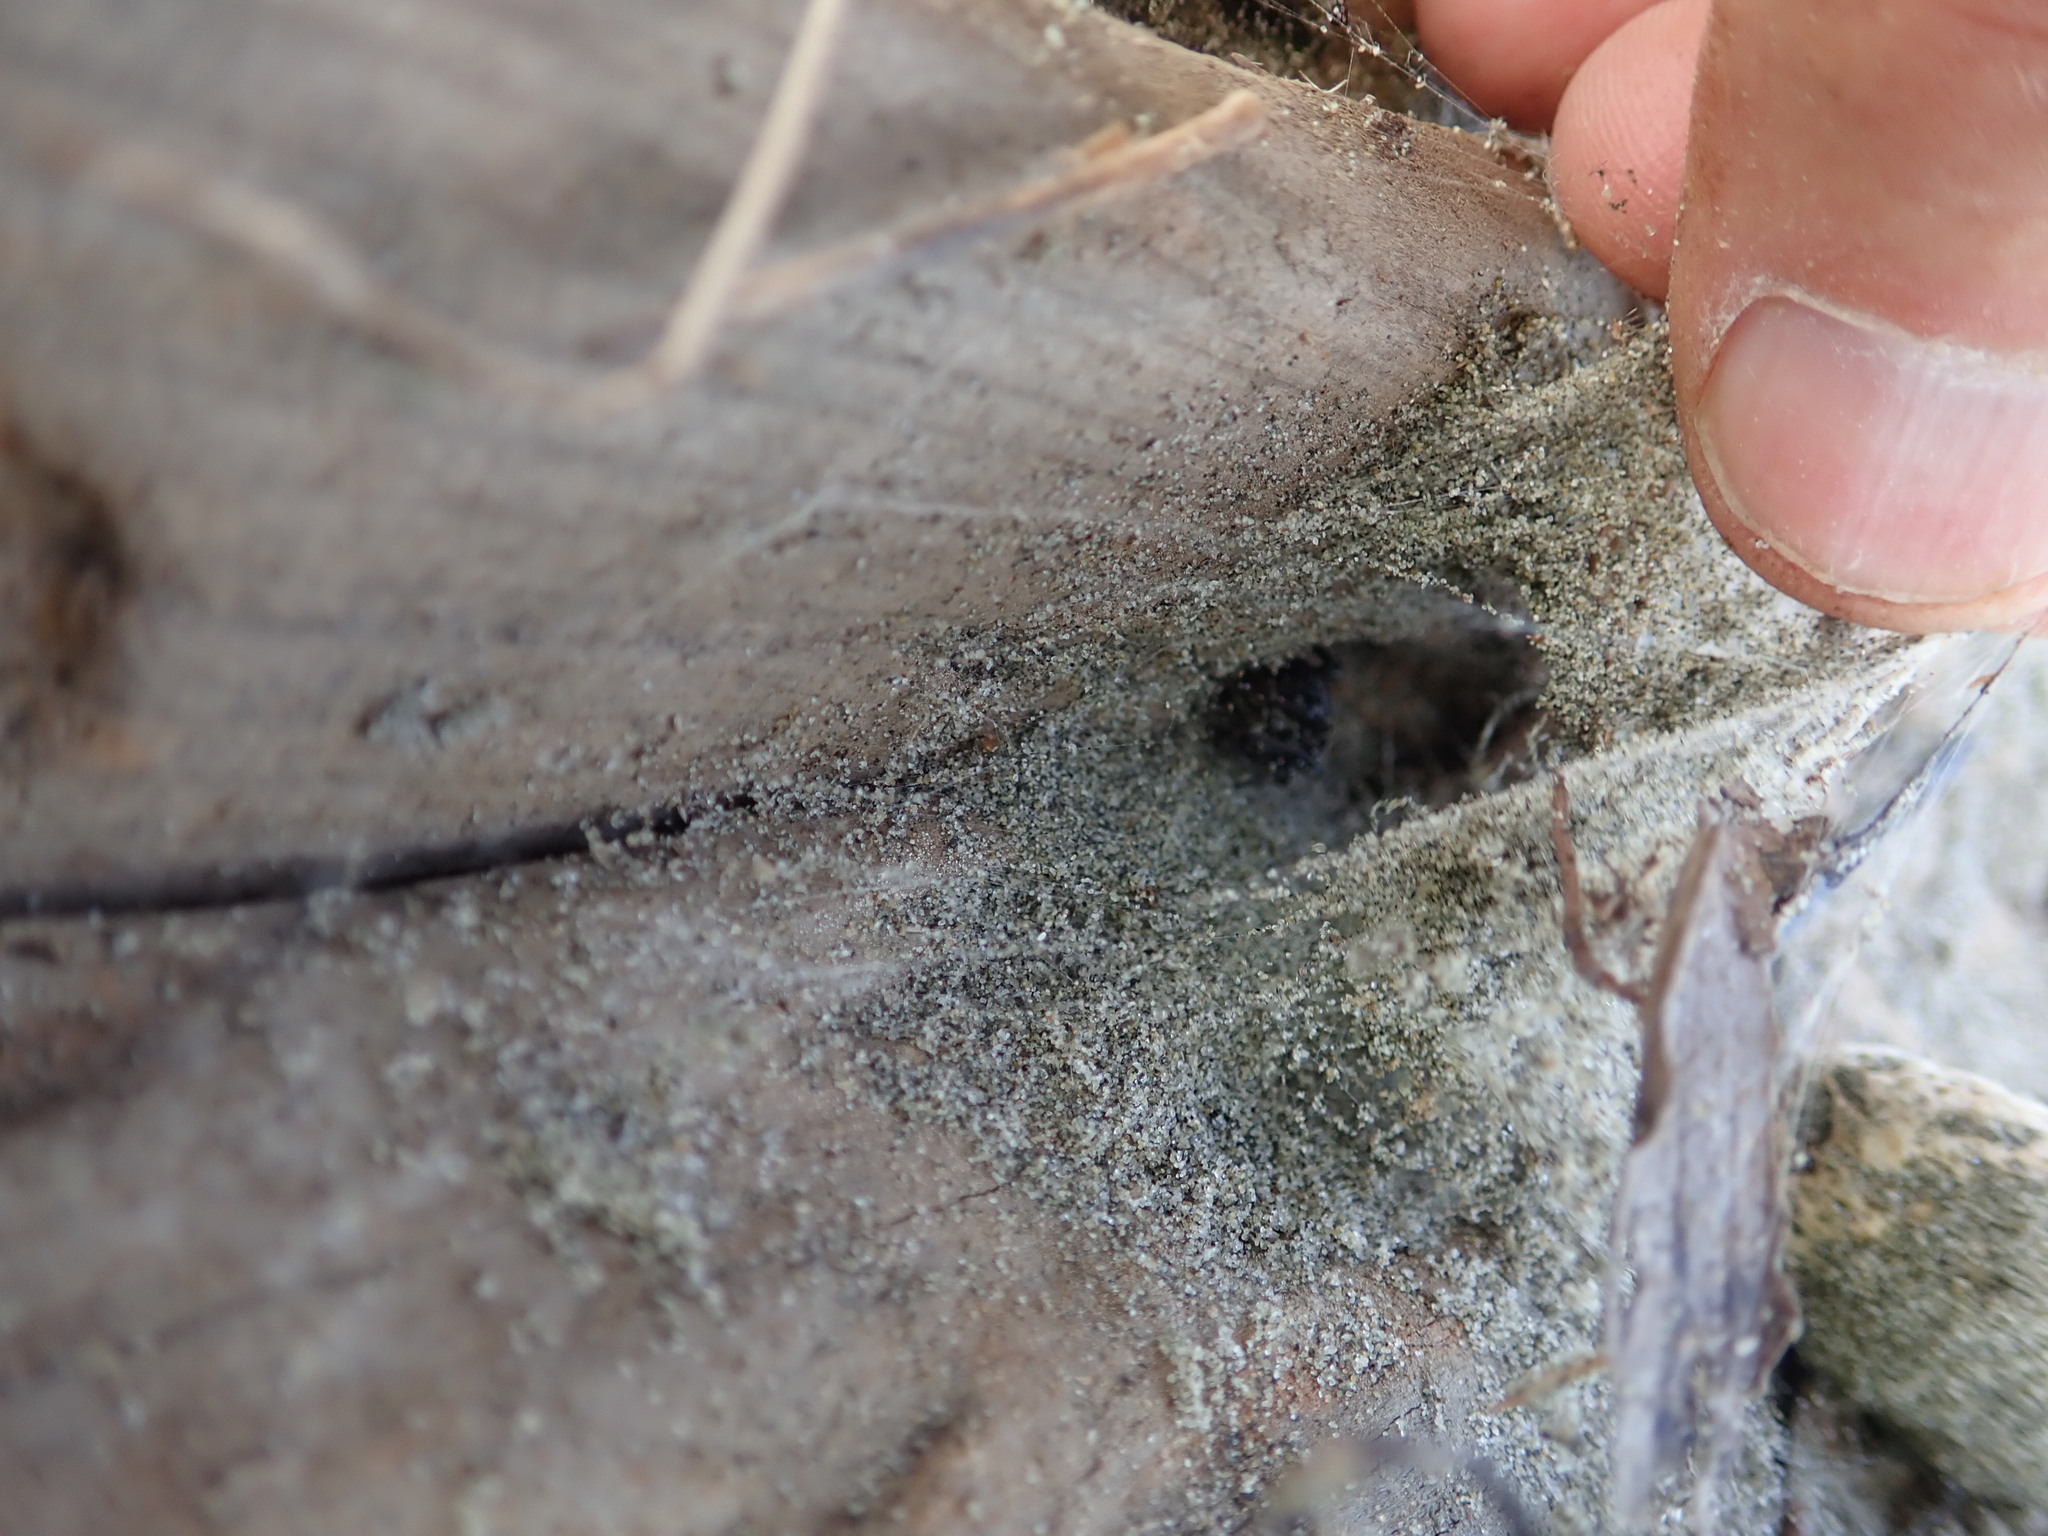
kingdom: Animalia
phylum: Arthropoda
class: Arachnida
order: Araneae
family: Theridiidae
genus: Latrodectus
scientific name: Latrodectus katipo
